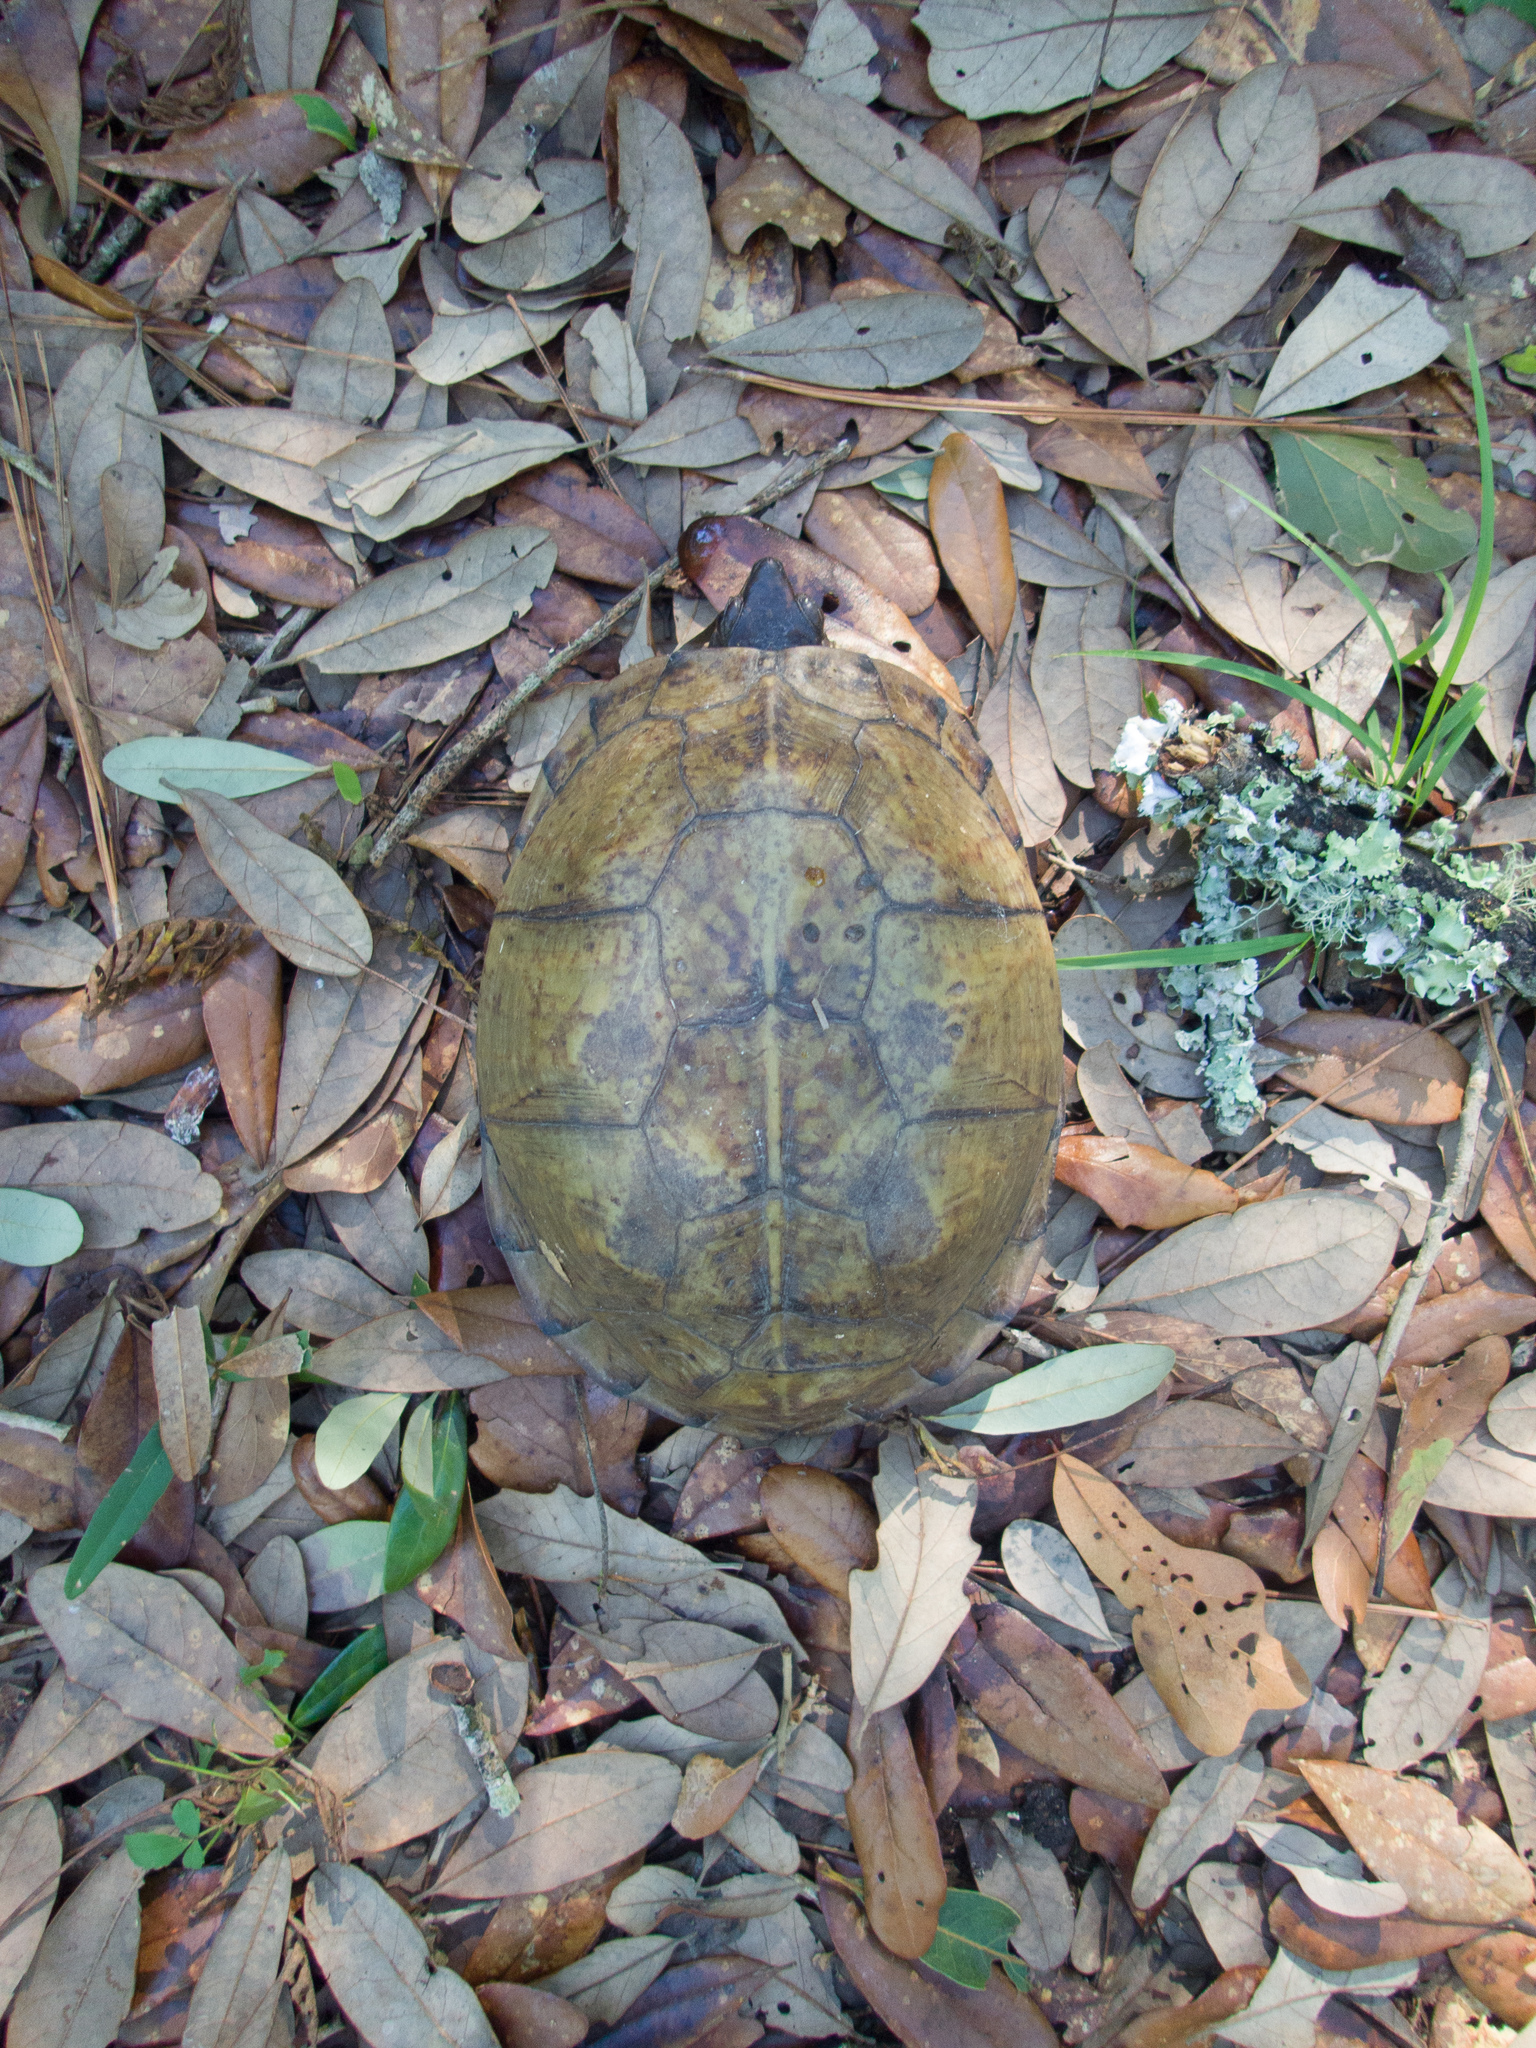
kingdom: Animalia
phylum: Chordata
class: Testudines
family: Emydidae
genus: Terrapene
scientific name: Terrapene carolina
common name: Common box turtle
